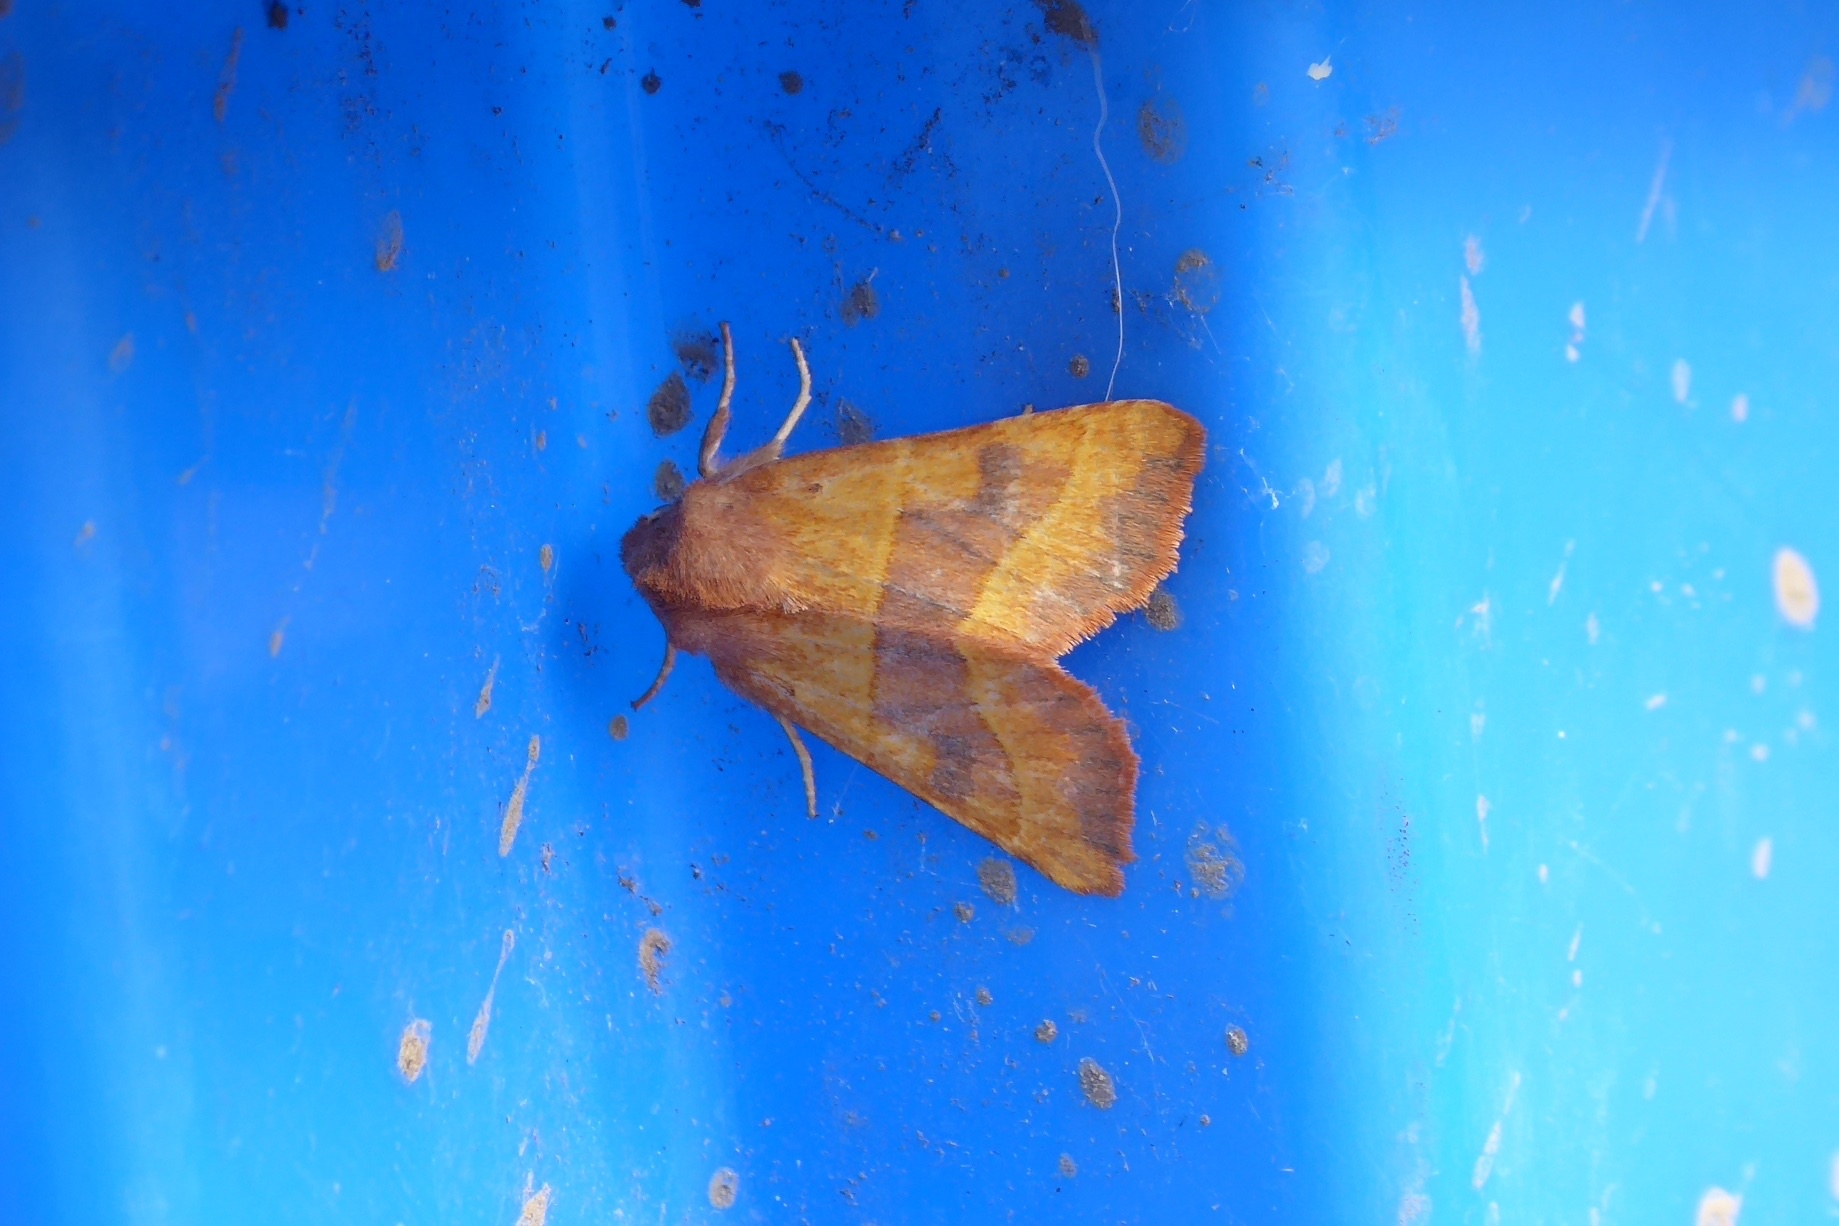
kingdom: Animalia
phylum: Arthropoda
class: Insecta
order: Lepidoptera
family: Noctuidae
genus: Atethmia
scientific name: Atethmia centrago
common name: Centre-barred sallow
